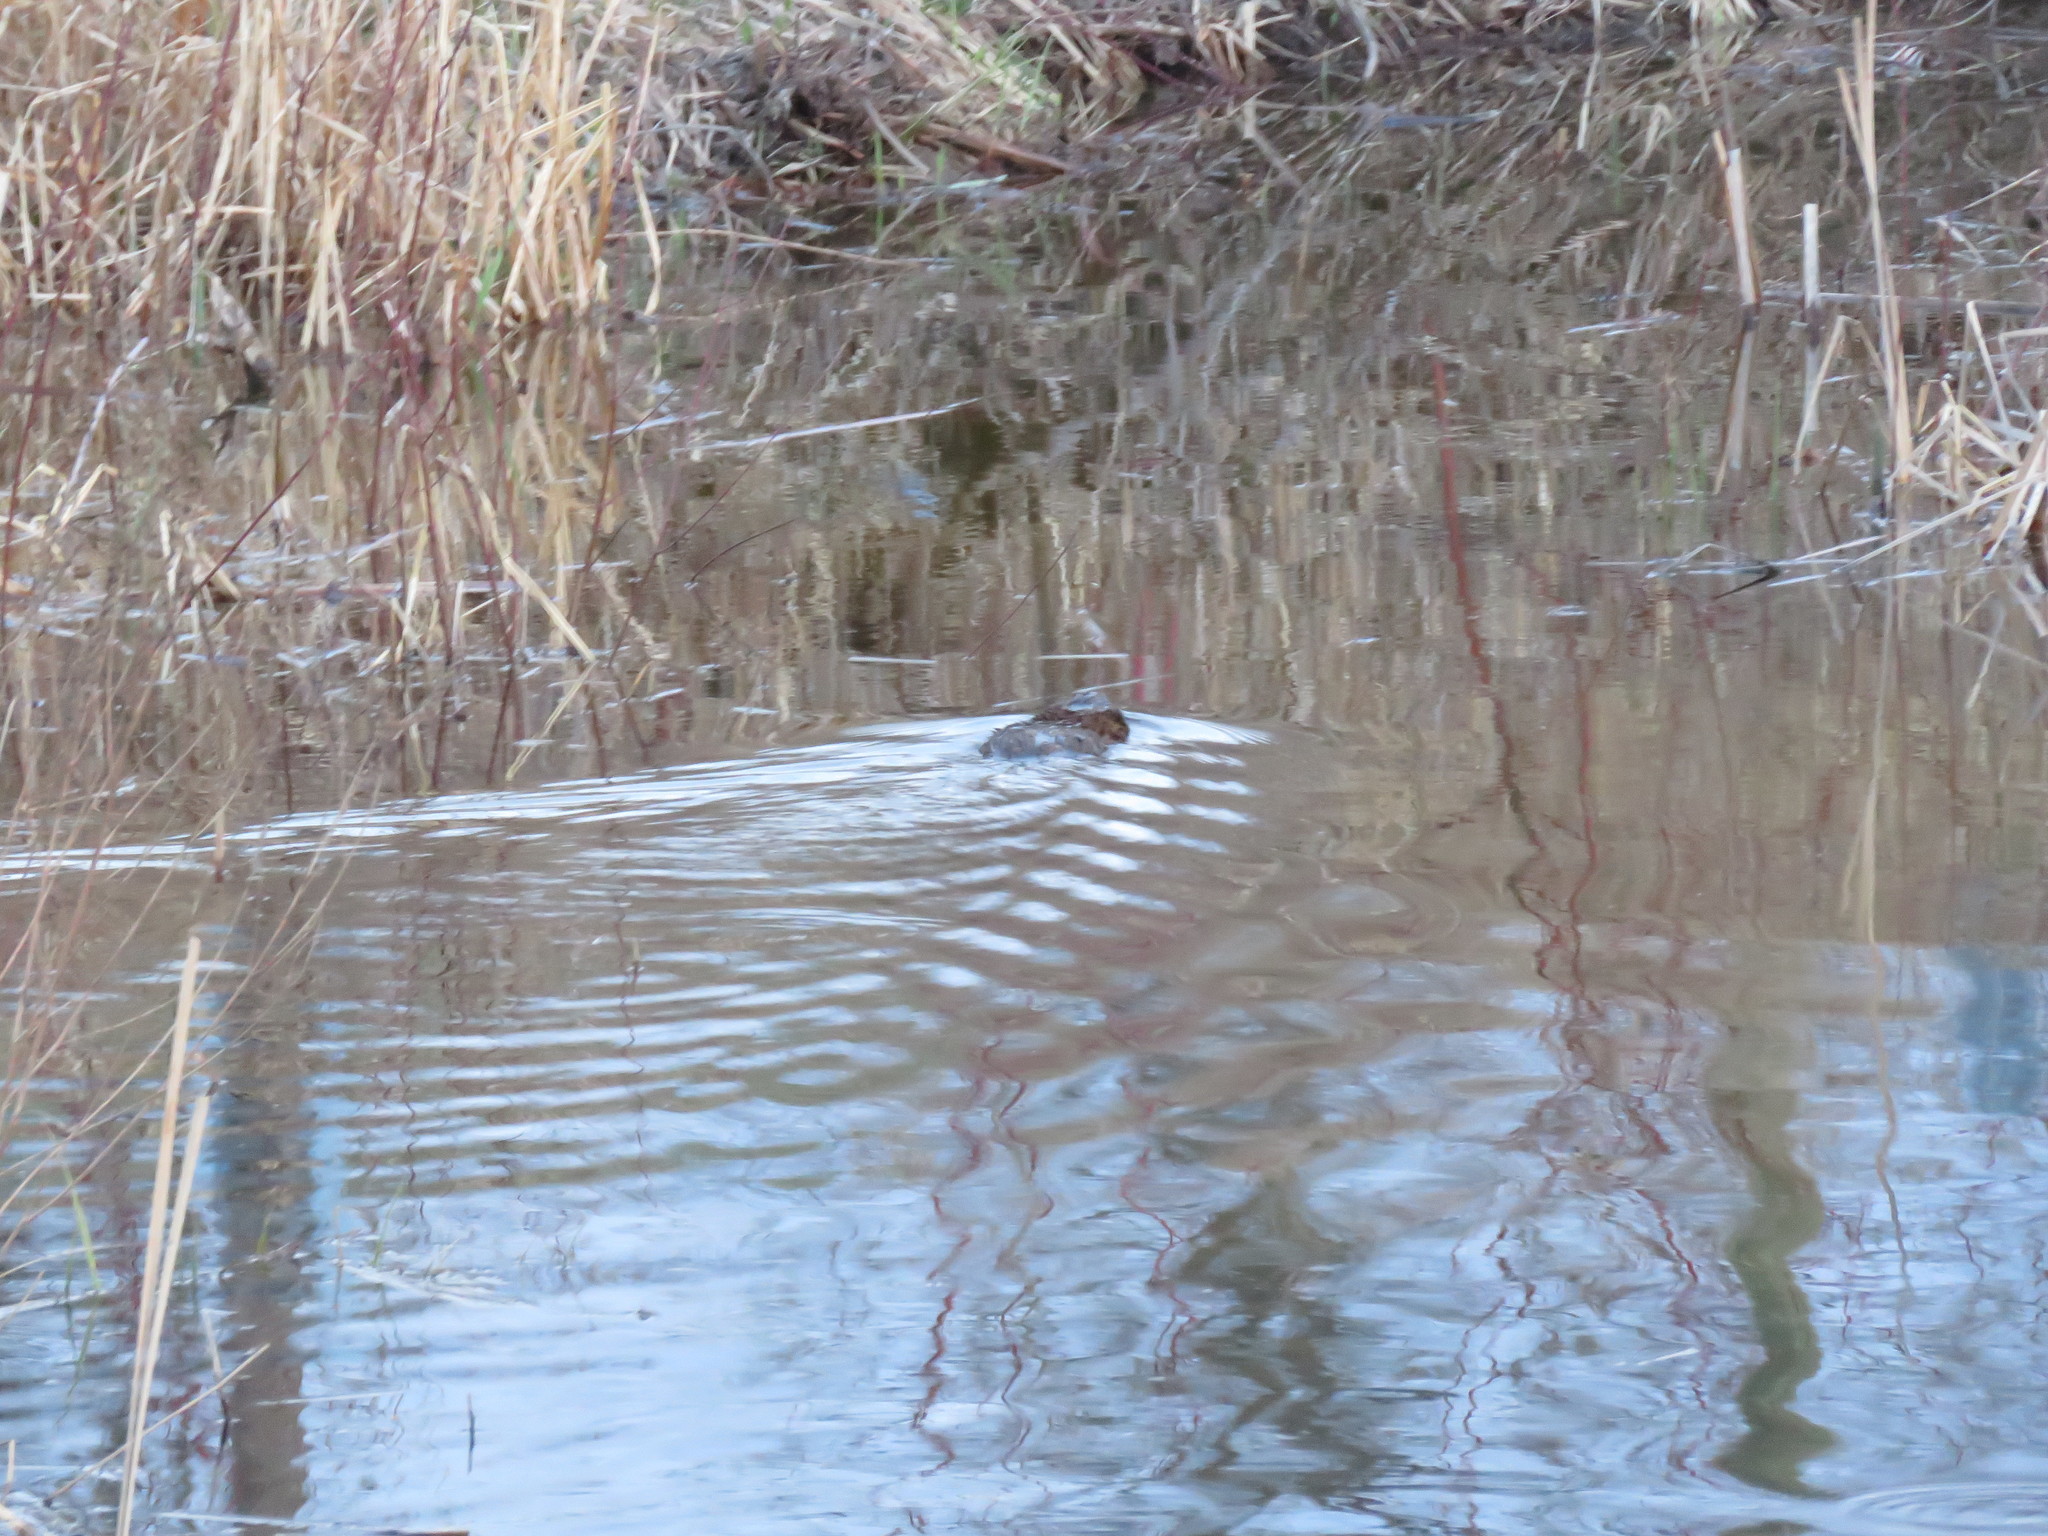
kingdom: Animalia
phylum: Chordata
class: Mammalia
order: Rodentia
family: Cricetidae
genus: Ondatra
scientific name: Ondatra zibethicus
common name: Muskrat
